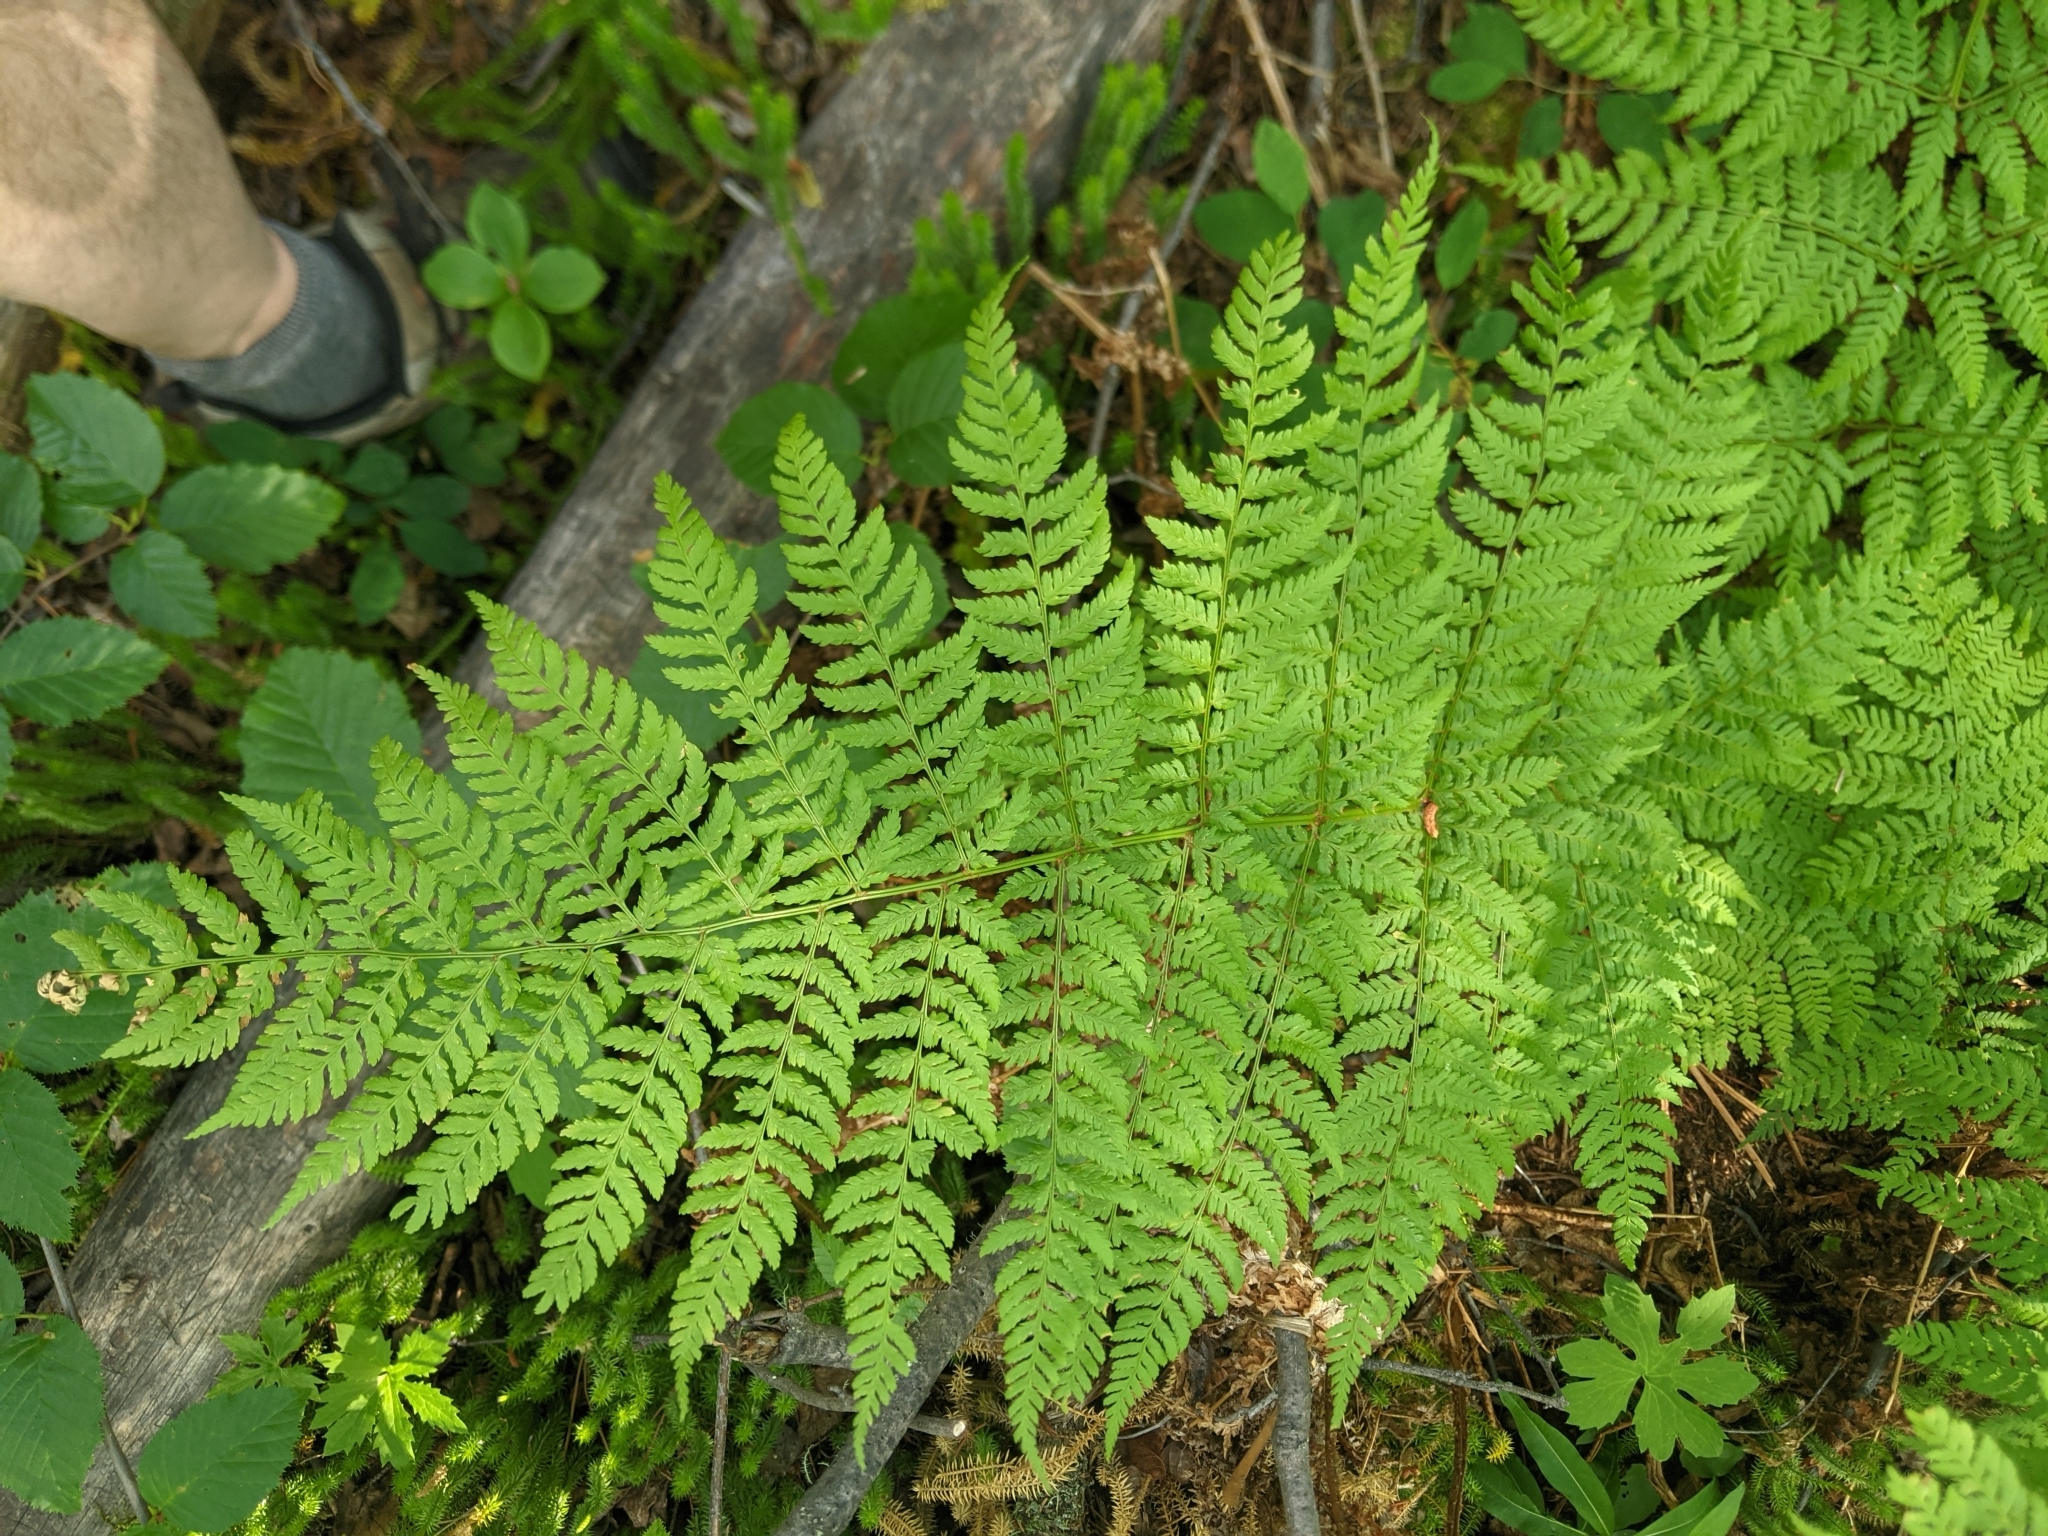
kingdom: Plantae
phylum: Tracheophyta
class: Polypodiopsida
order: Polypodiales
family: Dryopteridaceae
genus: Dryopteris
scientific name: Dryopteris expansa
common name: Northern buckler fern
